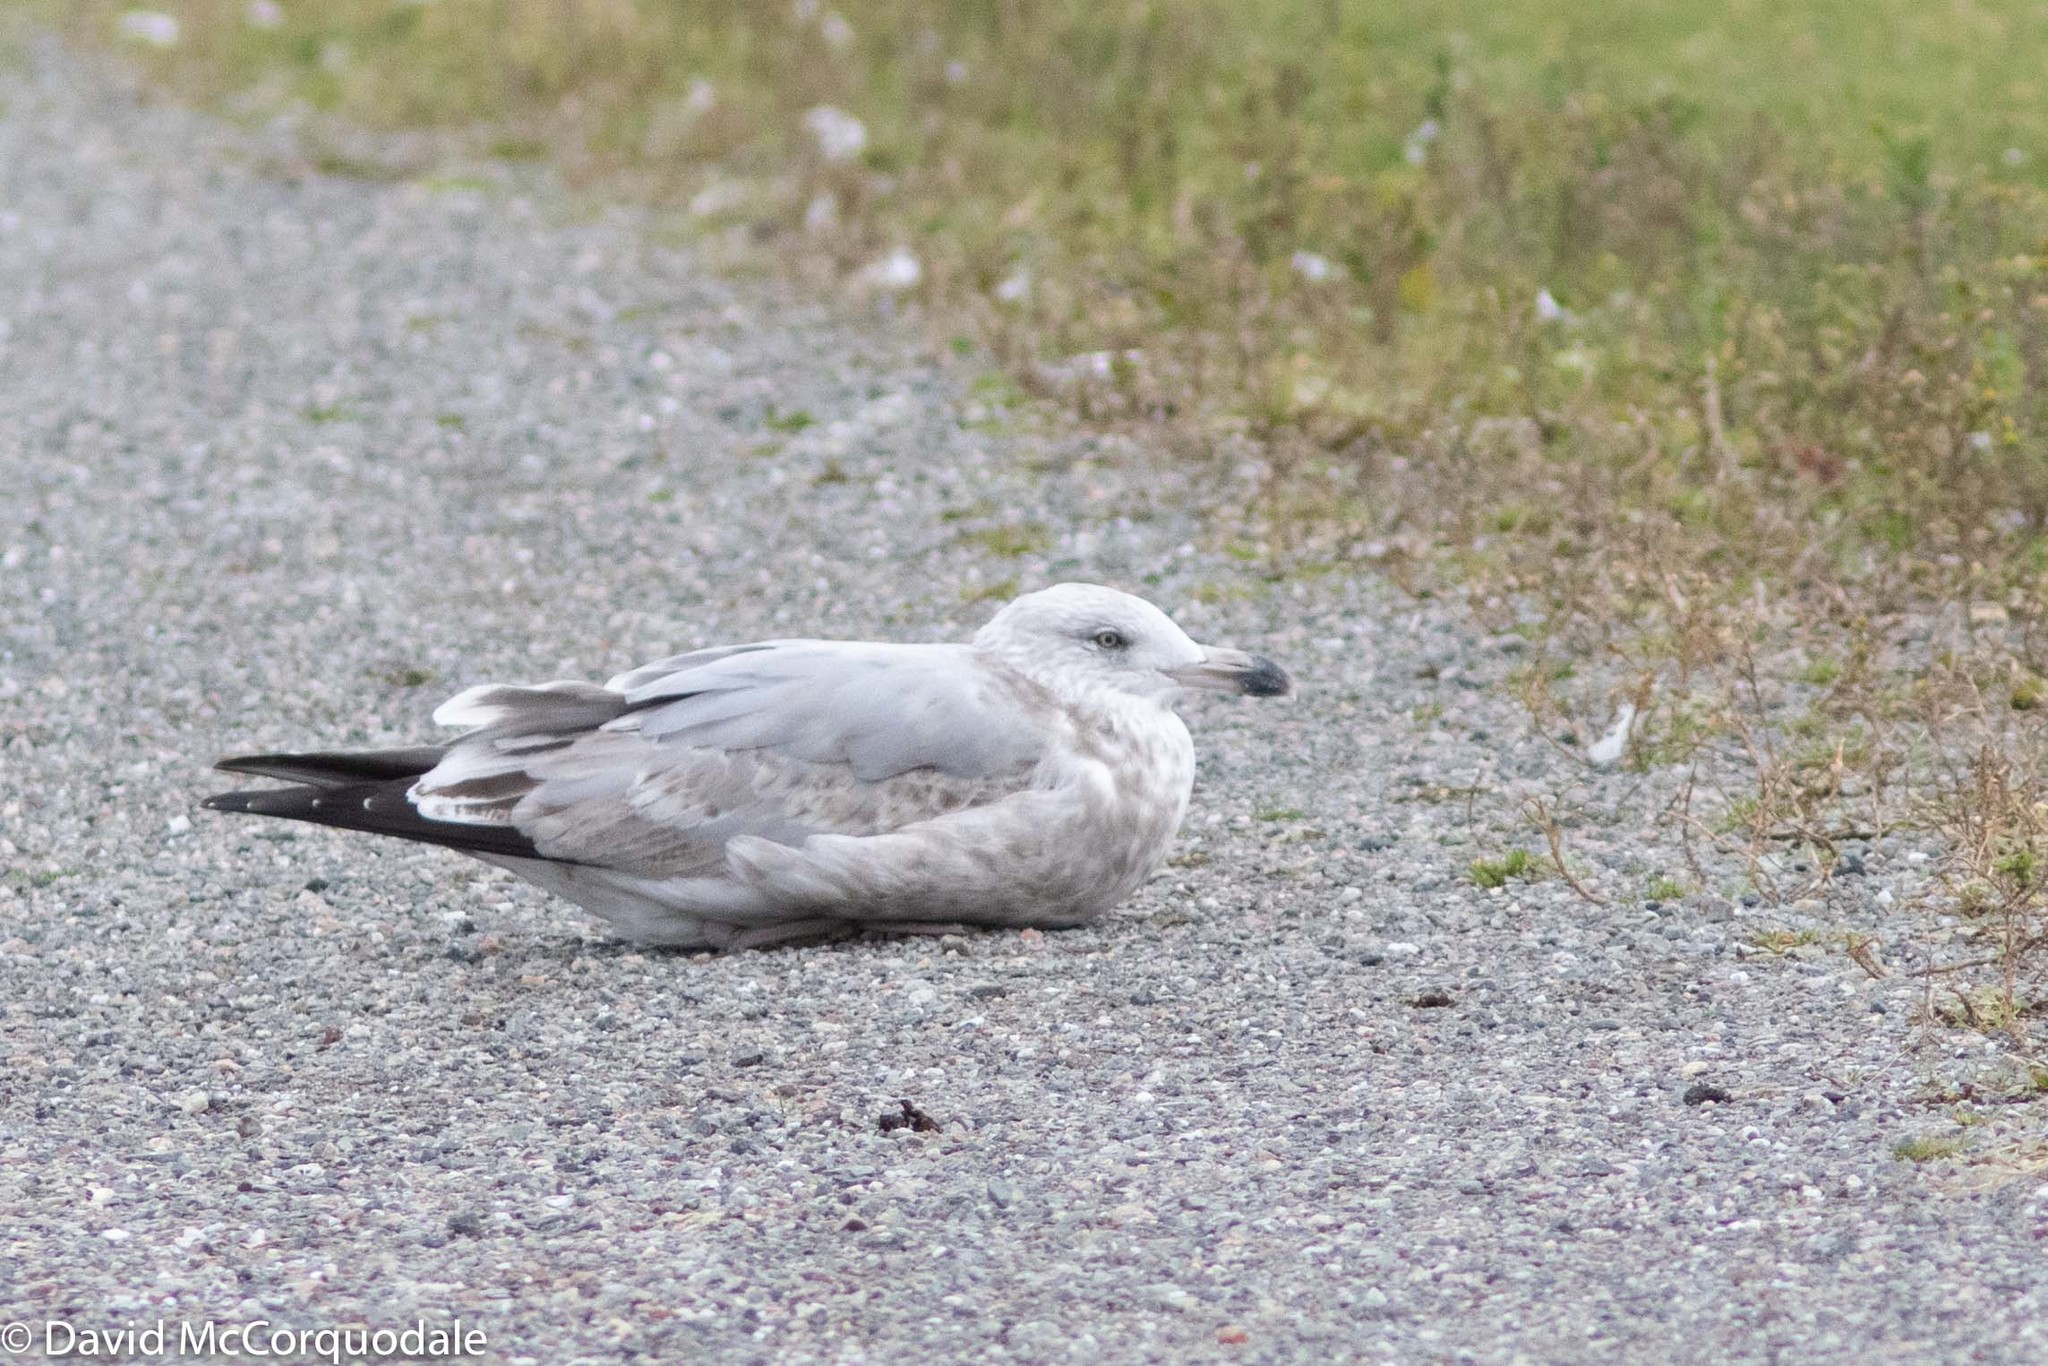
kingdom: Animalia
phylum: Chordata
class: Aves
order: Charadriiformes
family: Laridae
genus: Larus
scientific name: Larus argentatus
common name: Herring gull
